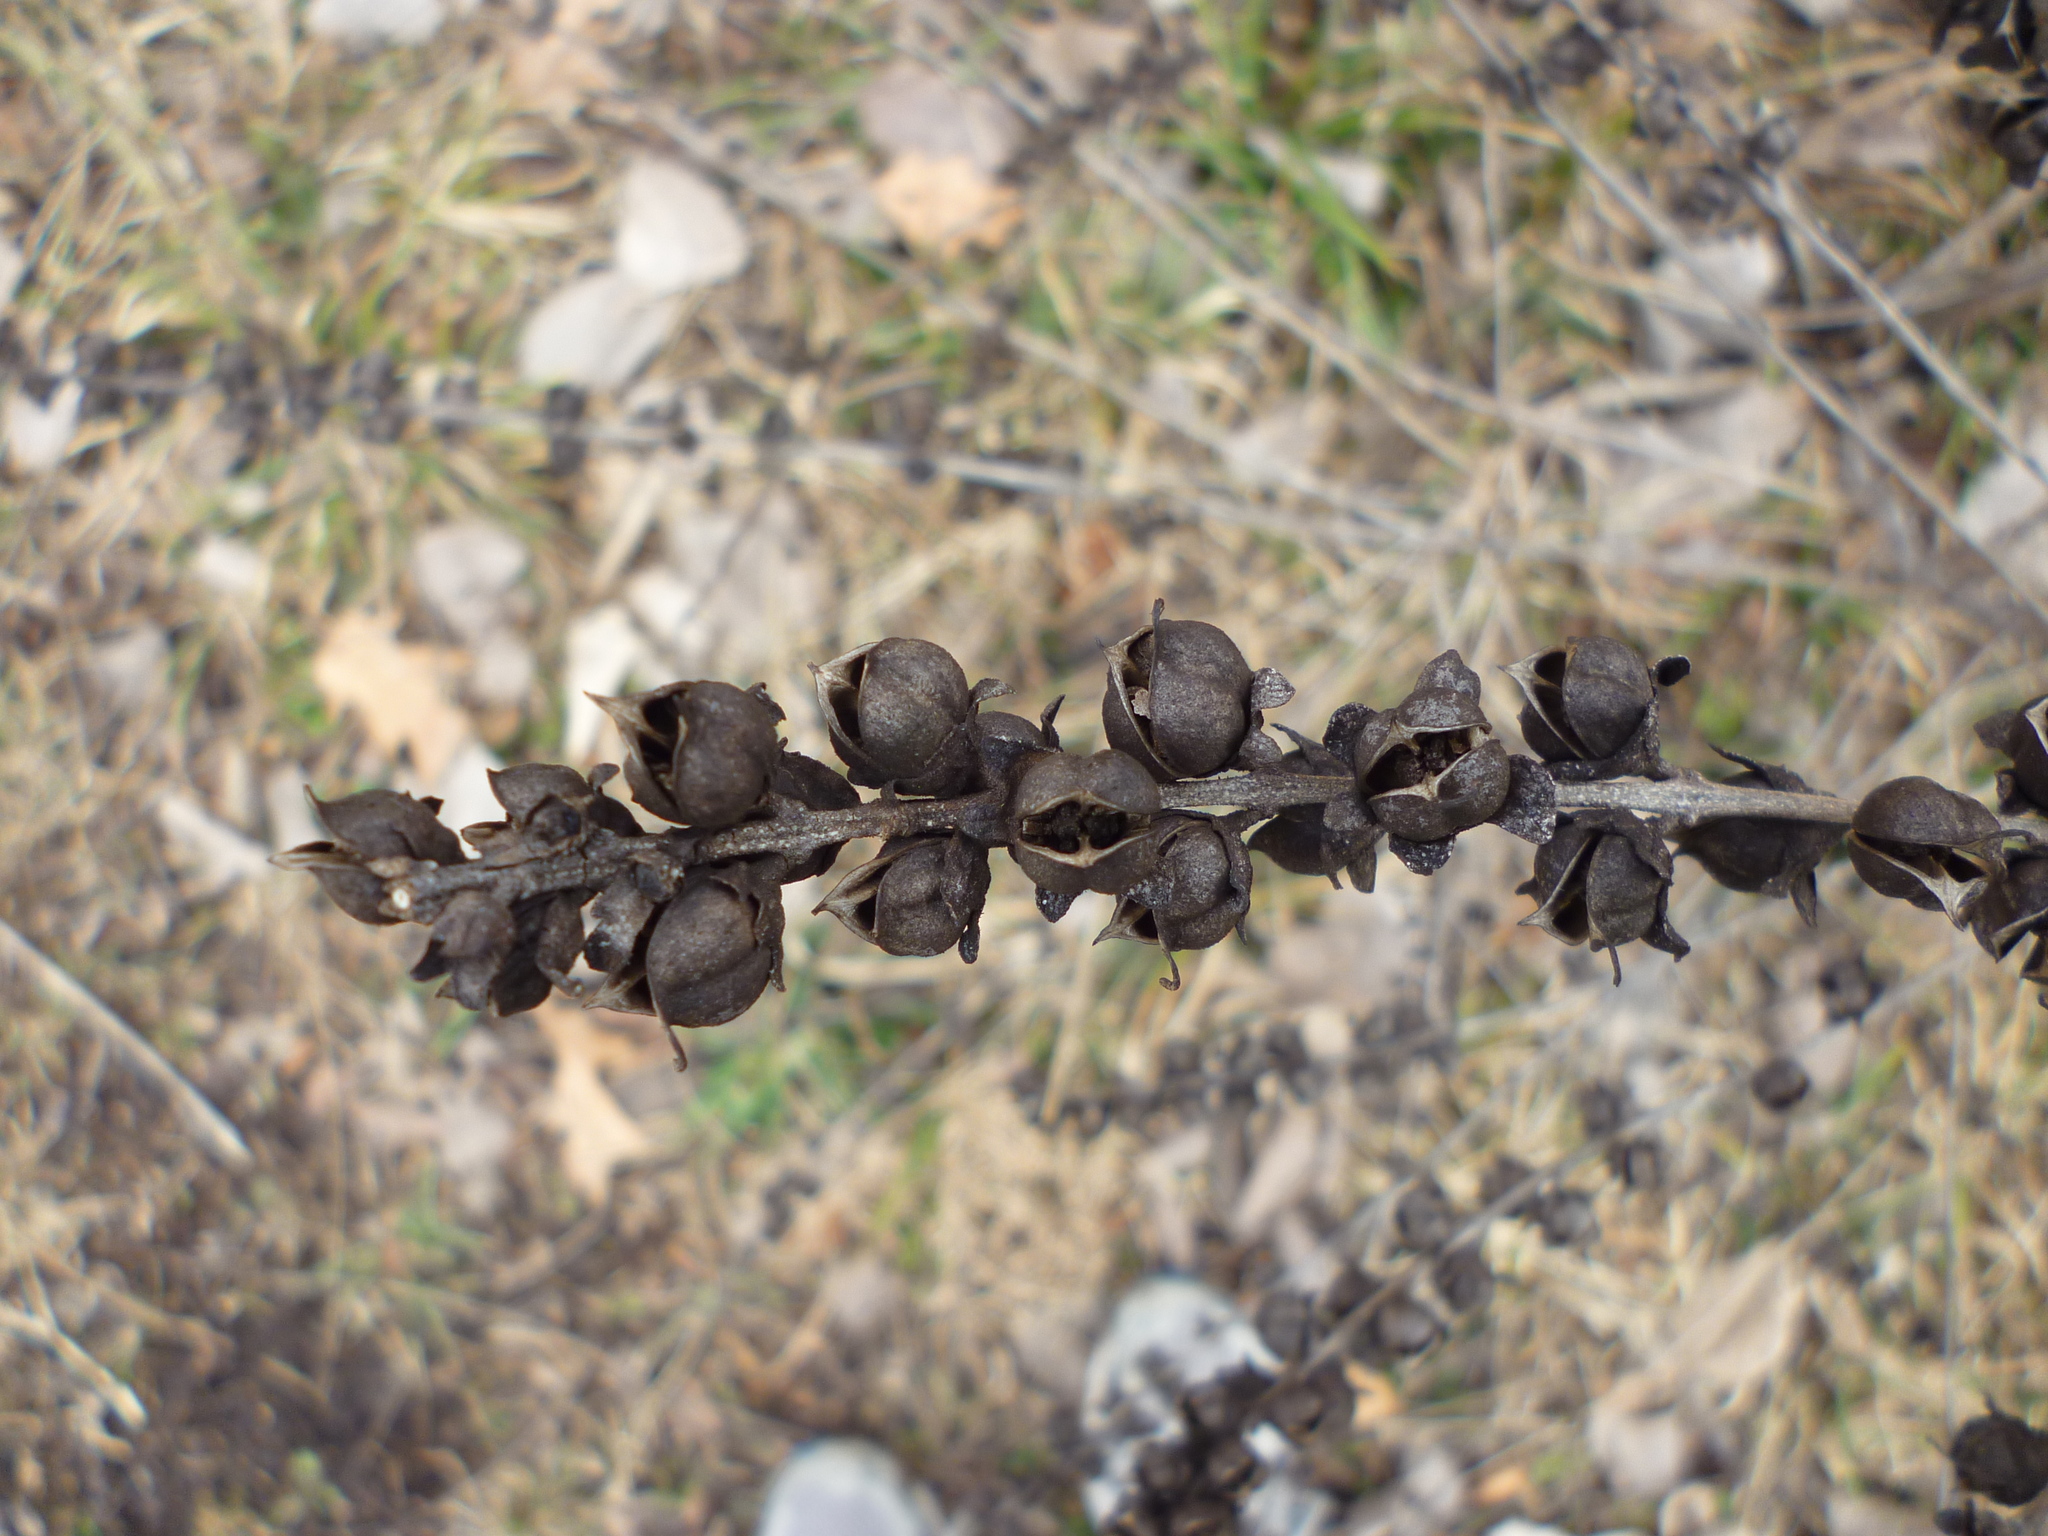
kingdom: Plantae
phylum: Tracheophyta
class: Magnoliopsida
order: Lamiales
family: Orobanchaceae
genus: Dasistoma
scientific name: Dasistoma macrophyllum
